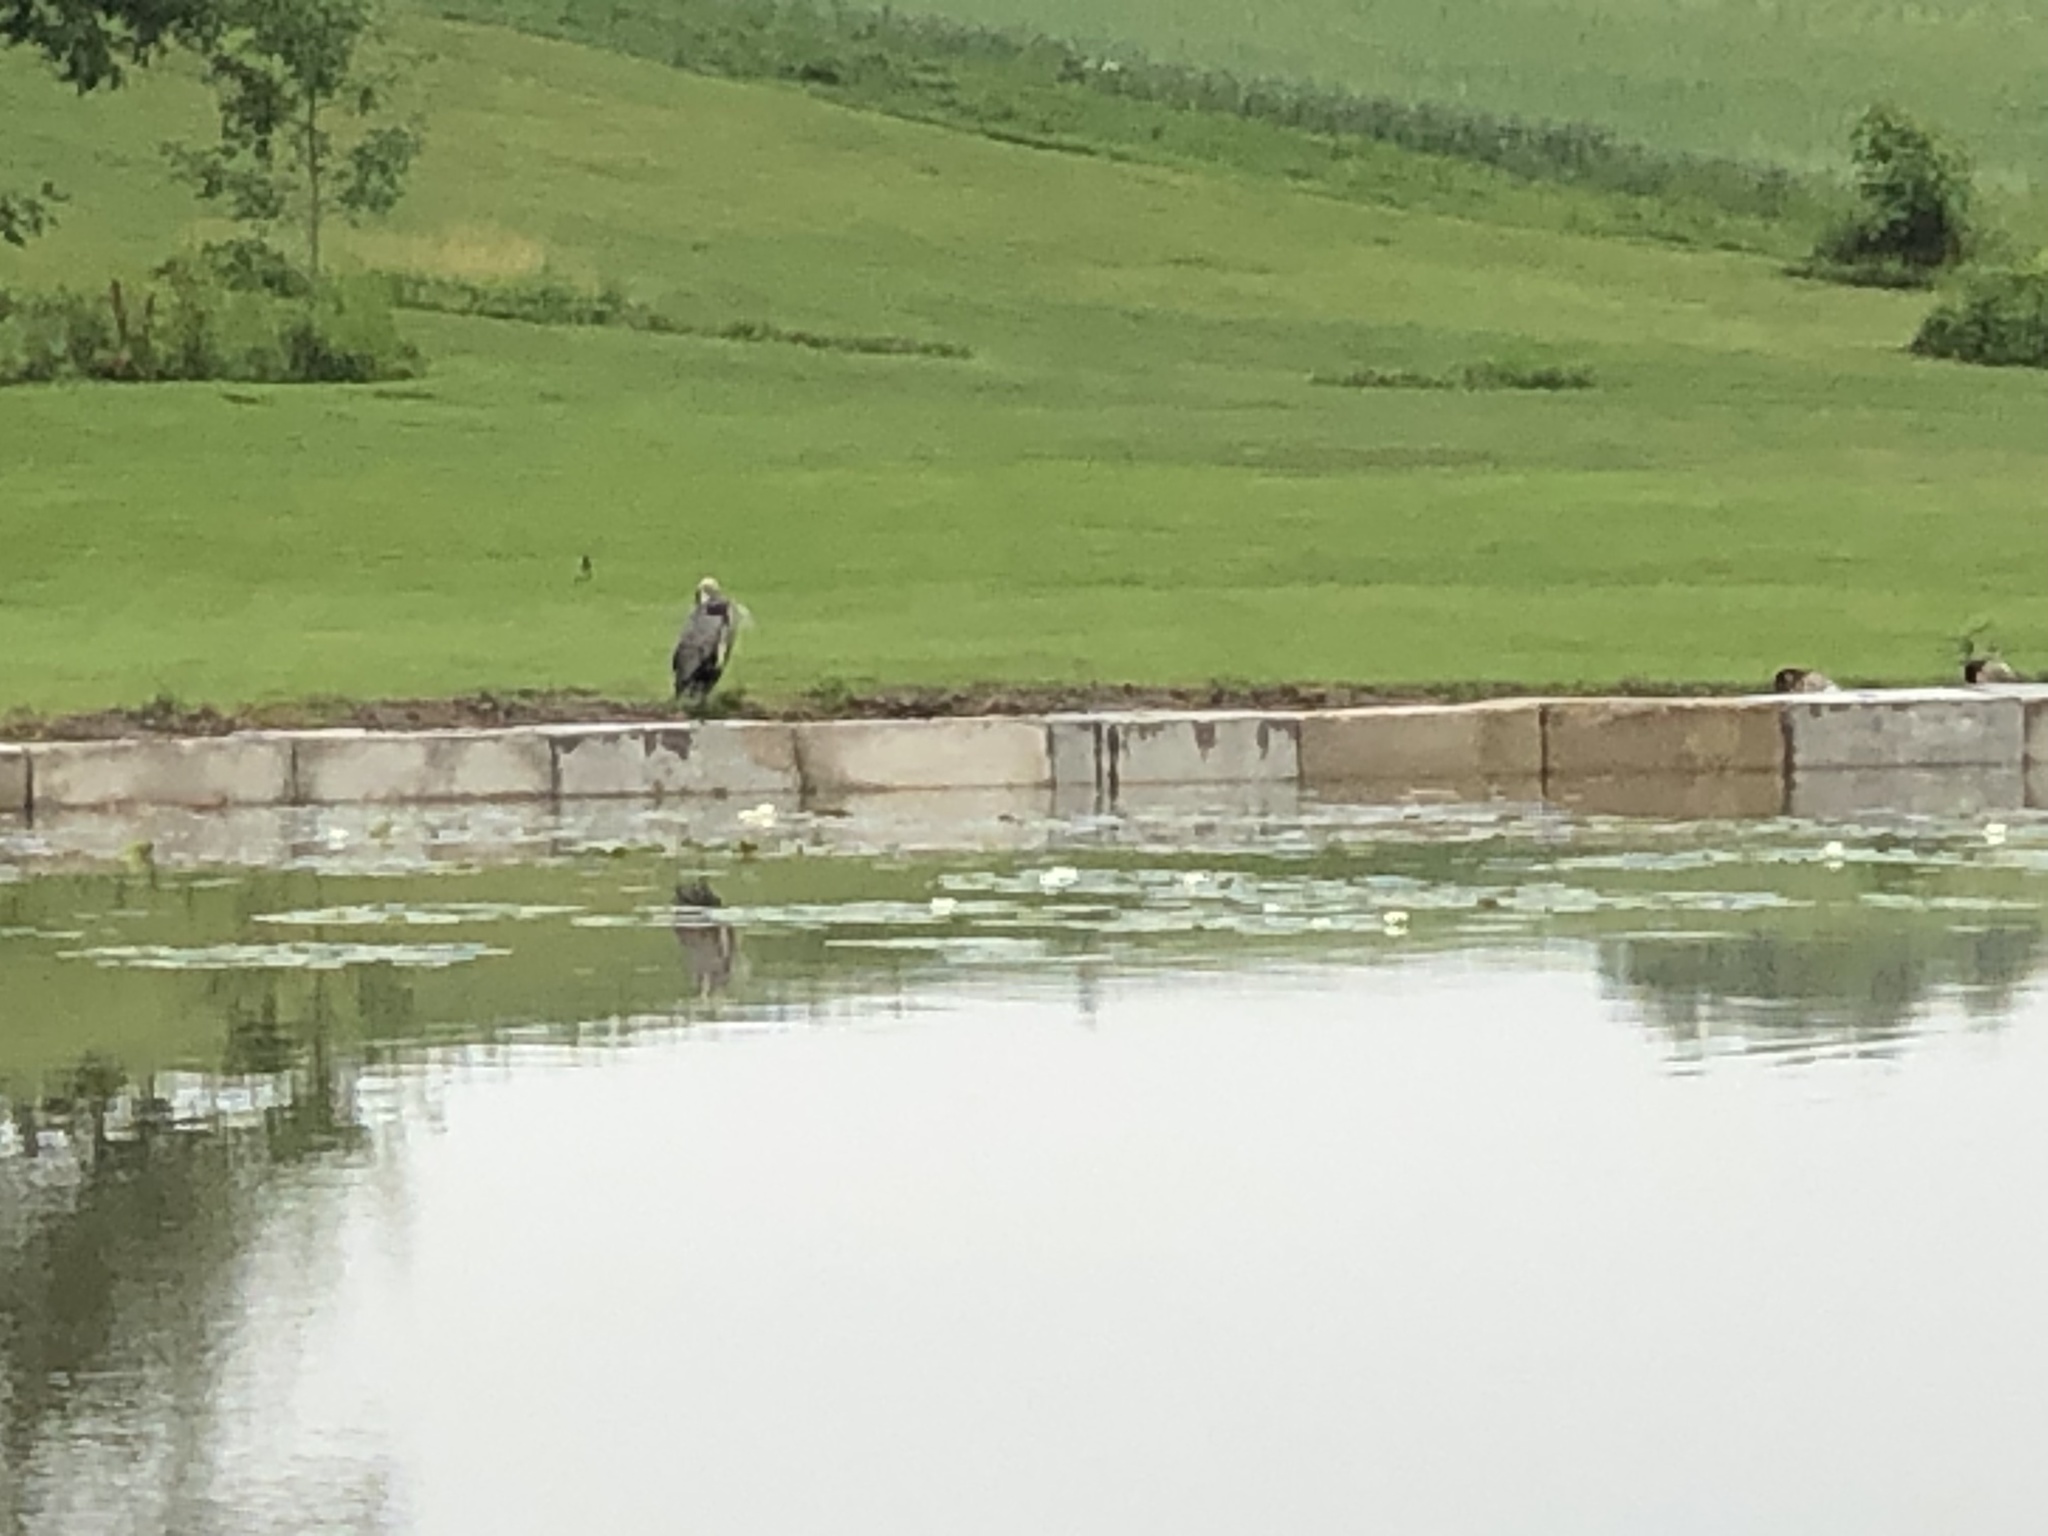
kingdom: Animalia
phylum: Chordata
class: Aves
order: Pelecaniformes
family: Ardeidae
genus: Ardea
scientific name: Ardea herodias
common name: Great blue heron
